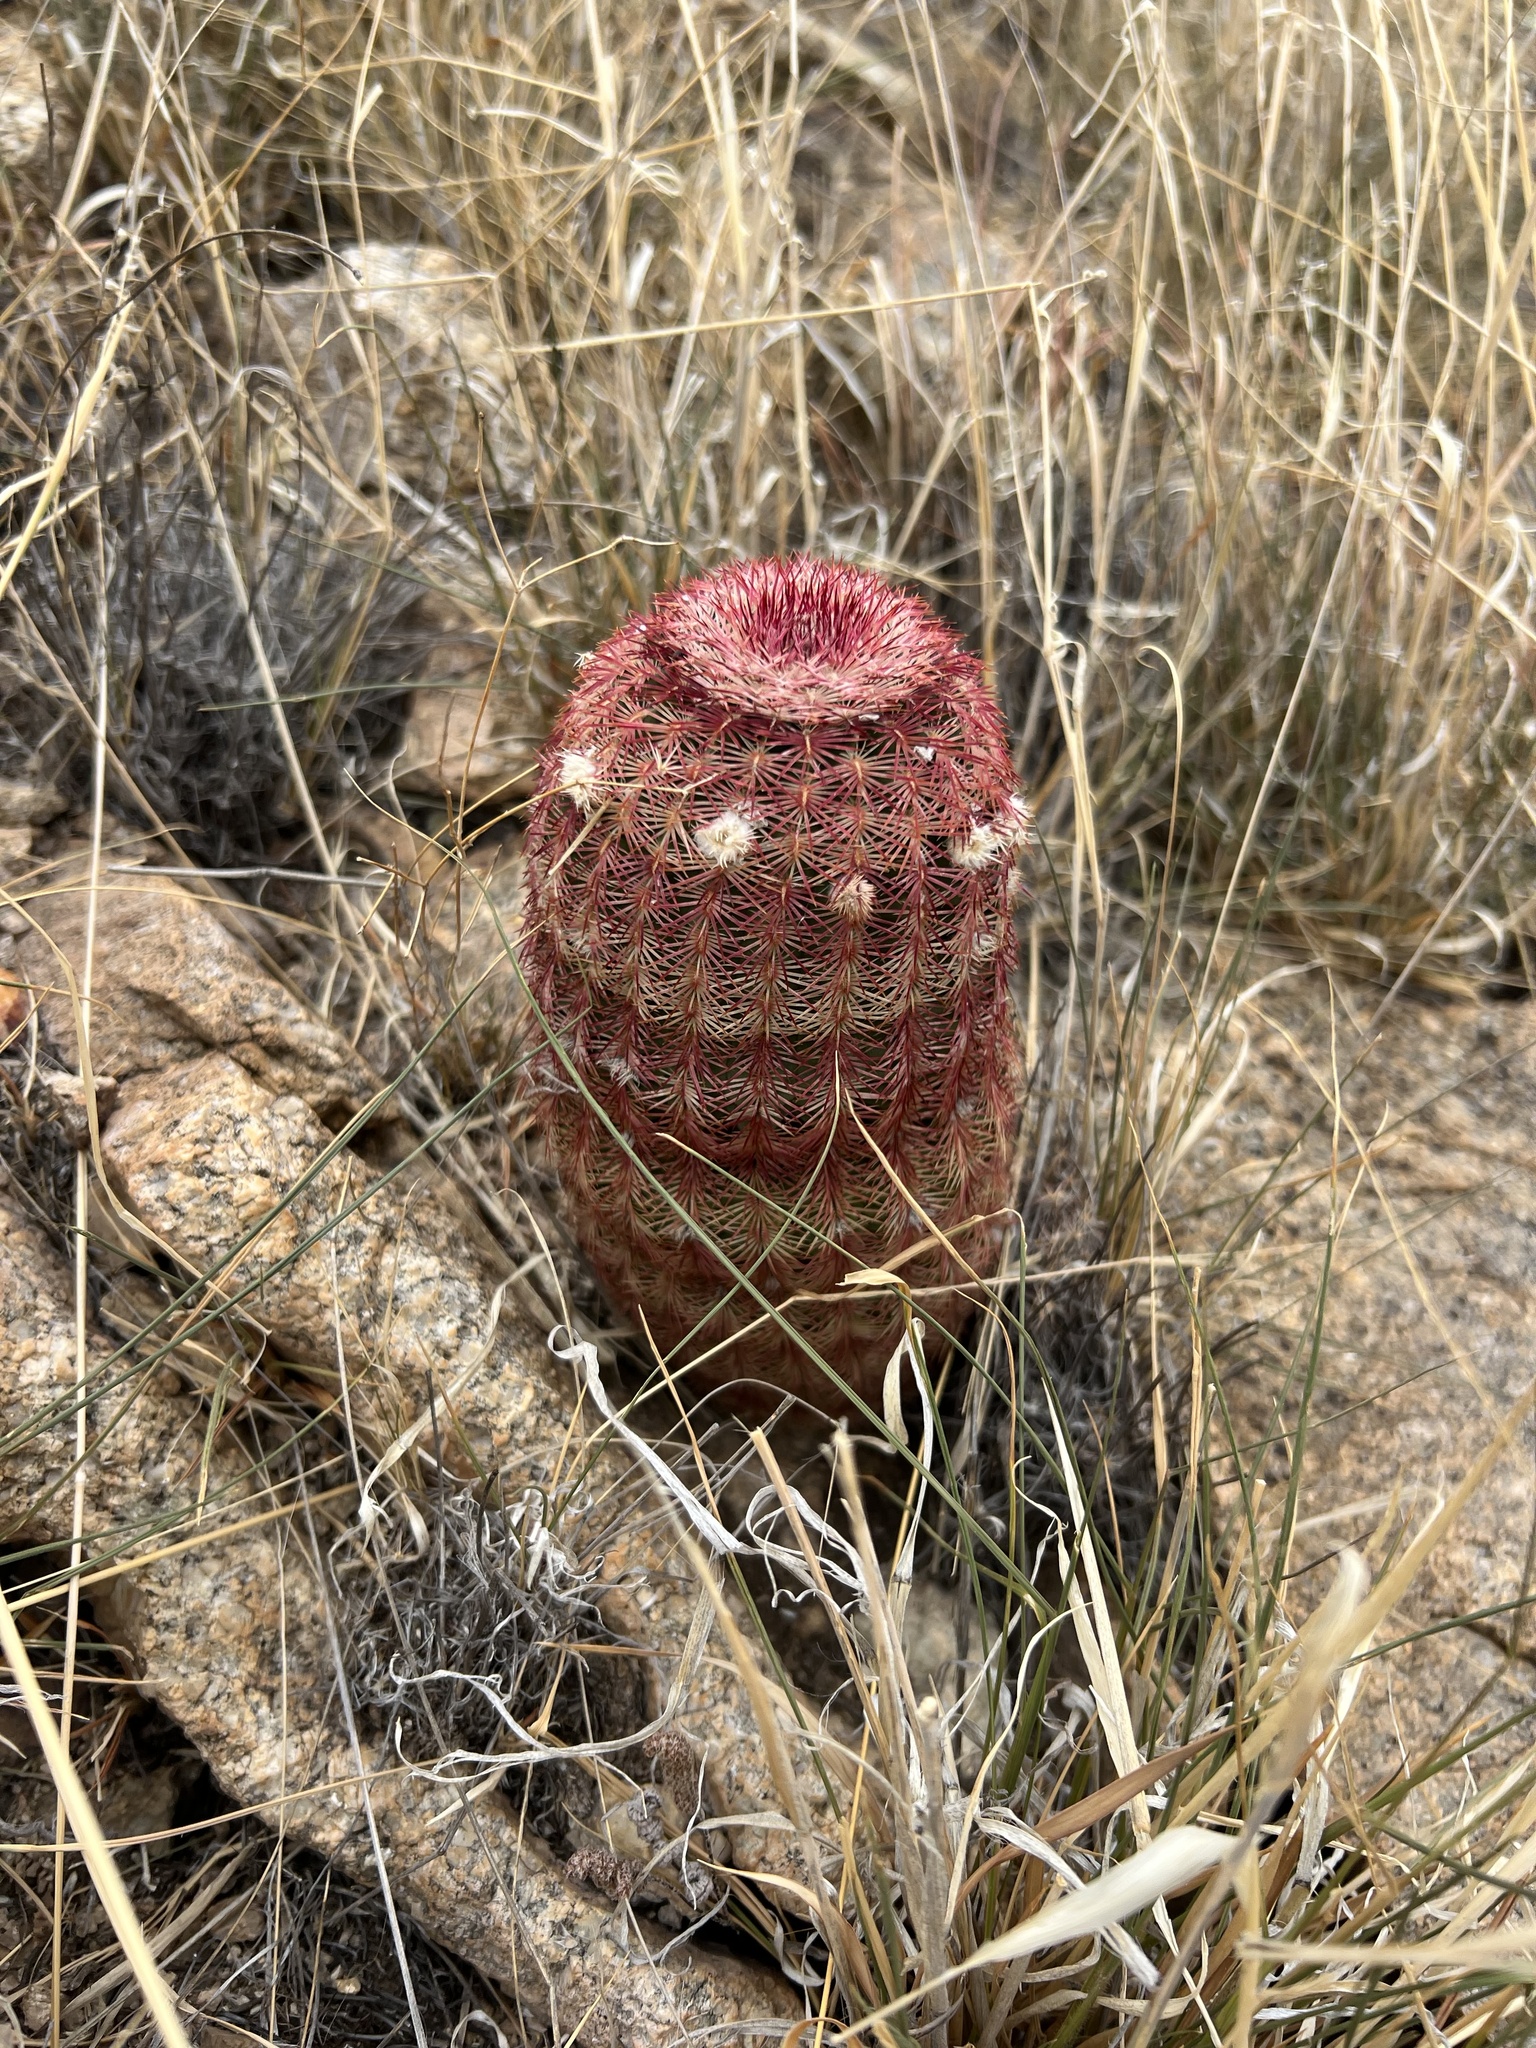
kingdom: Plantae
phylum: Tracheophyta
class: Magnoliopsida
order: Caryophyllales
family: Cactaceae
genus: Echinocereus
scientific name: Echinocereus rigidissimus
